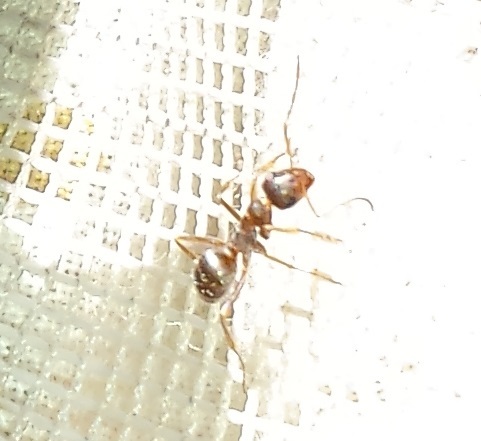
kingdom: Animalia
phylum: Arthropoda
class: Insecta
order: Hymenoptera
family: Formicidae
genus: Formica
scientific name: Formica montana
